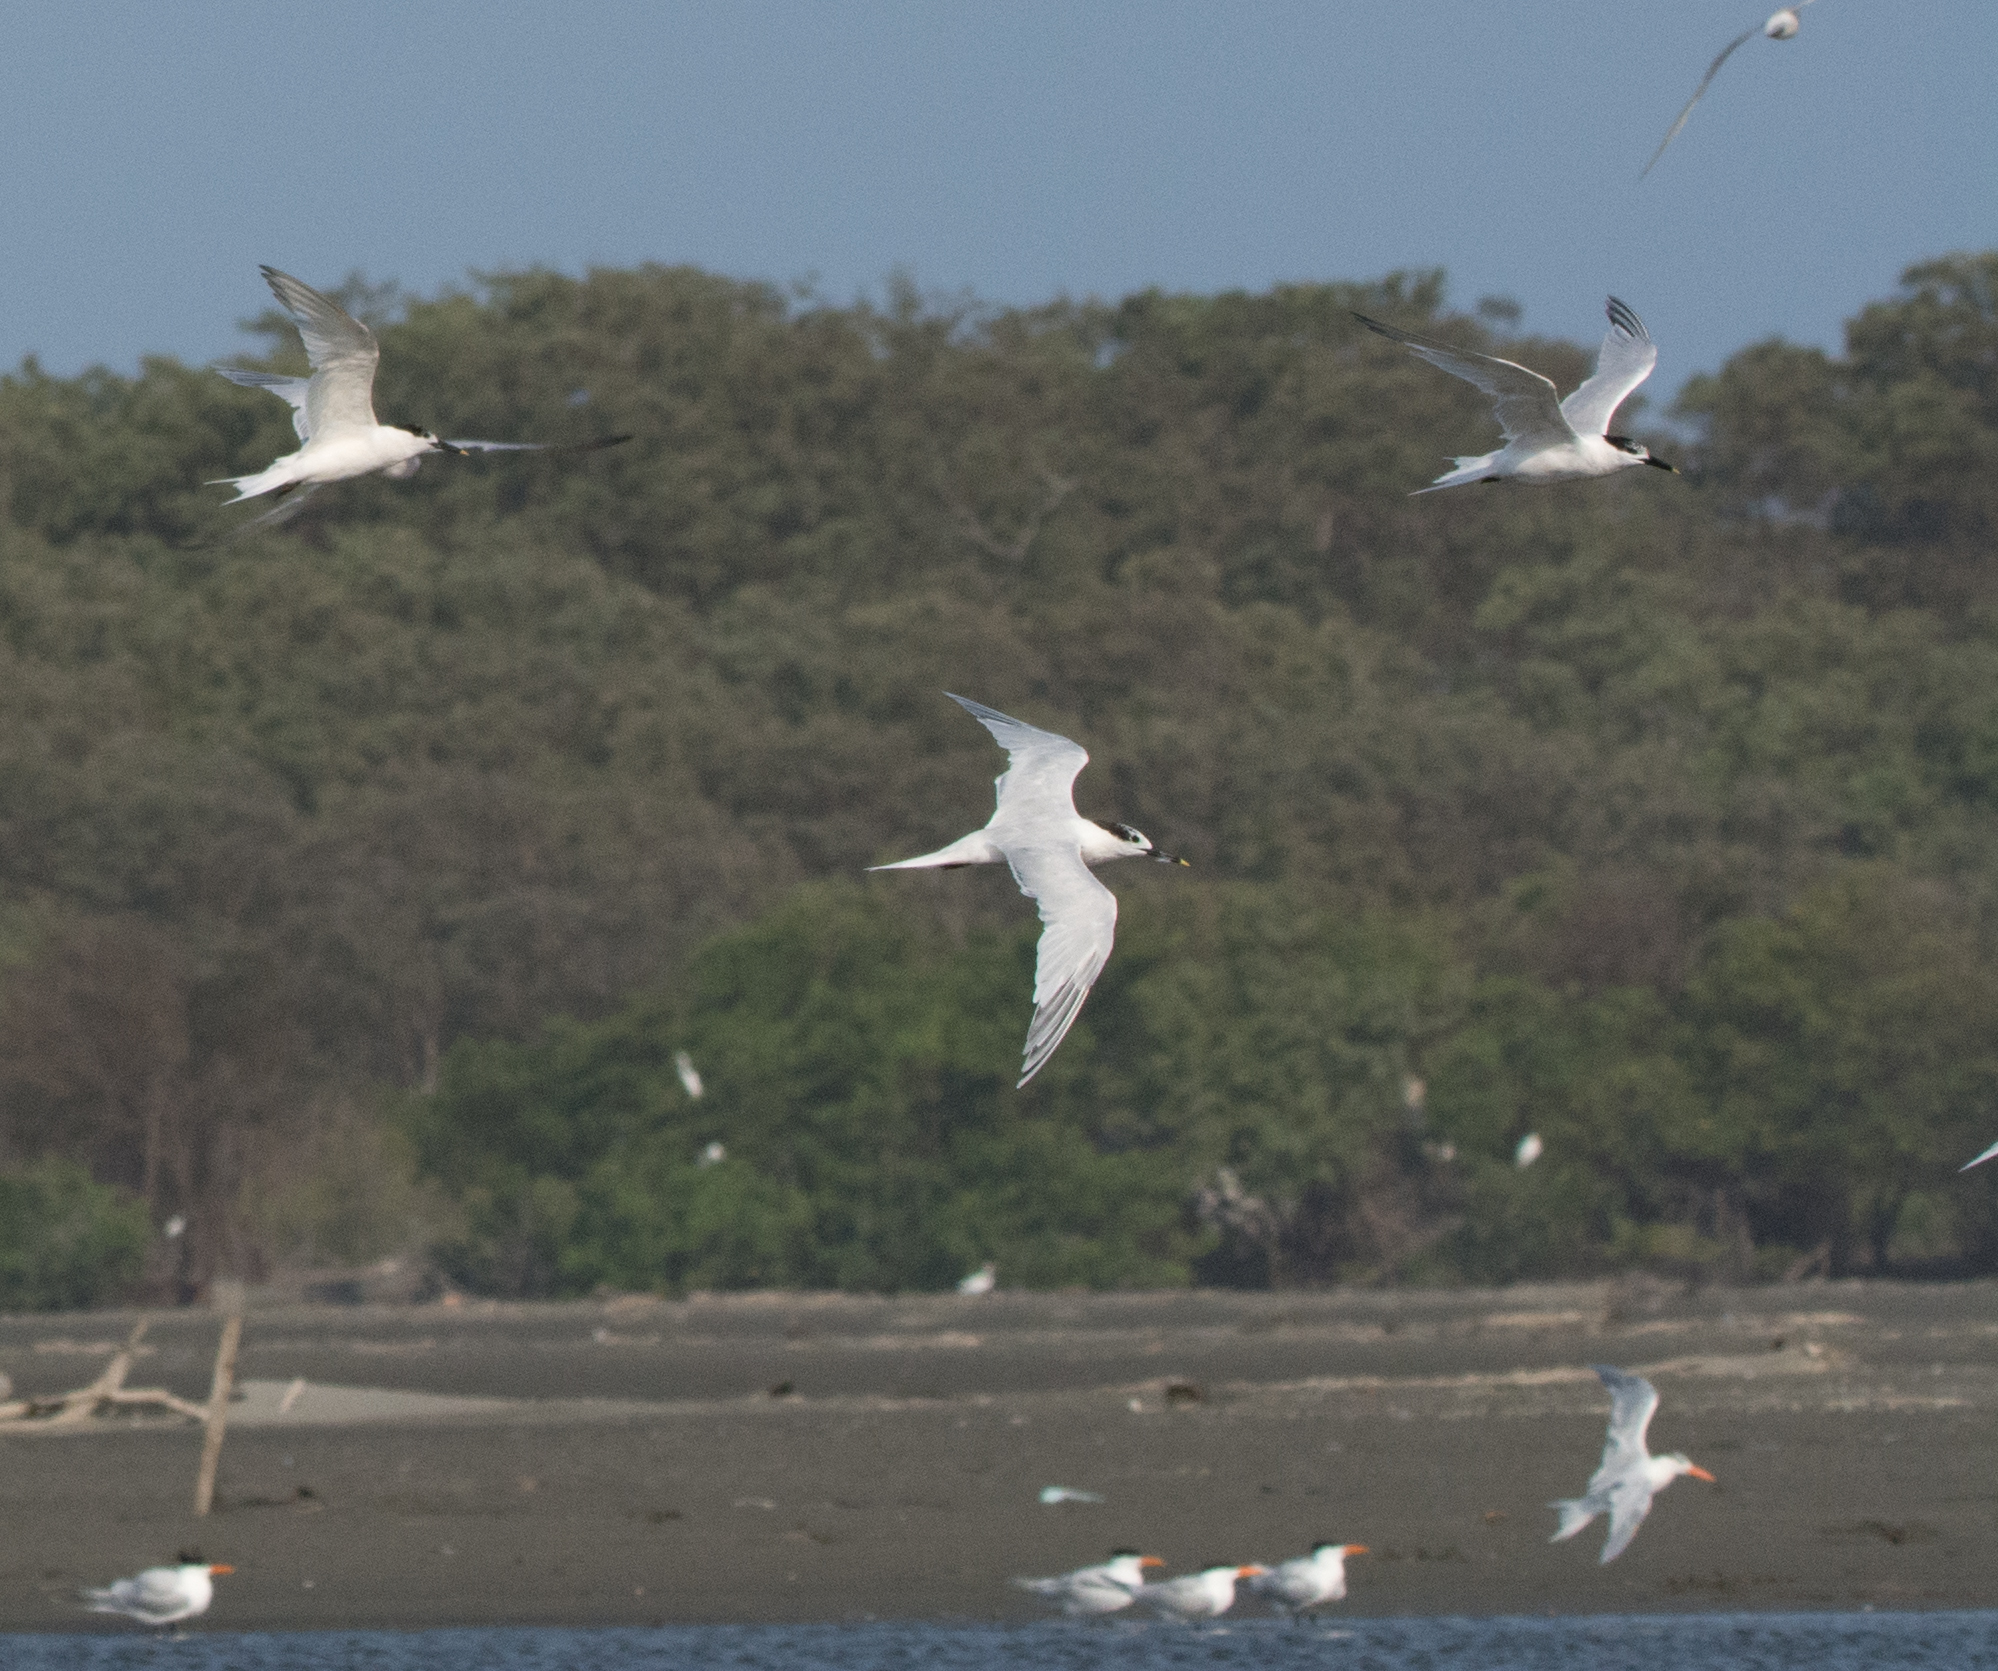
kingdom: Animalia
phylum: Chordata
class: Aves
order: Charadriiformes
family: Laridae
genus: Thalasseus
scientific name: Thalasseus sandvicensis
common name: Sandwich tern
